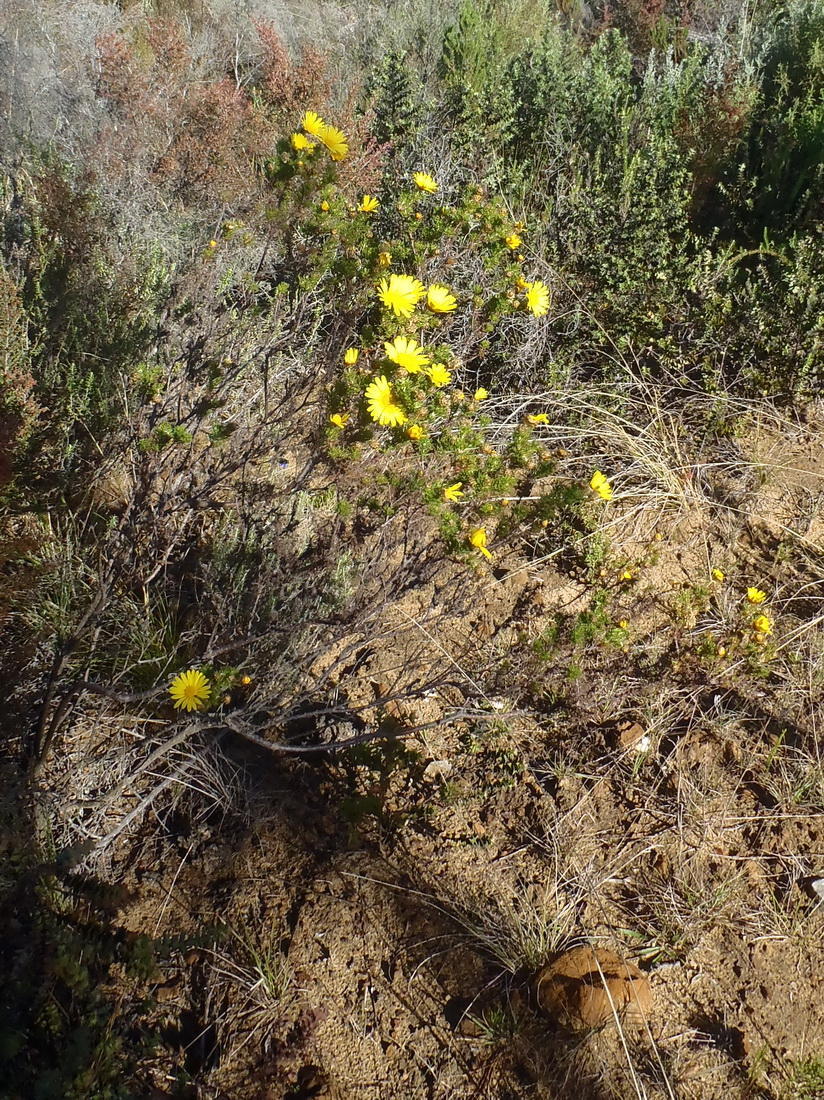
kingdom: Plantae
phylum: Tracheophyta
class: Magnoliopsida
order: Asterales
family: Asteraceae
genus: Ursinia
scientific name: Ursinia scariosa
